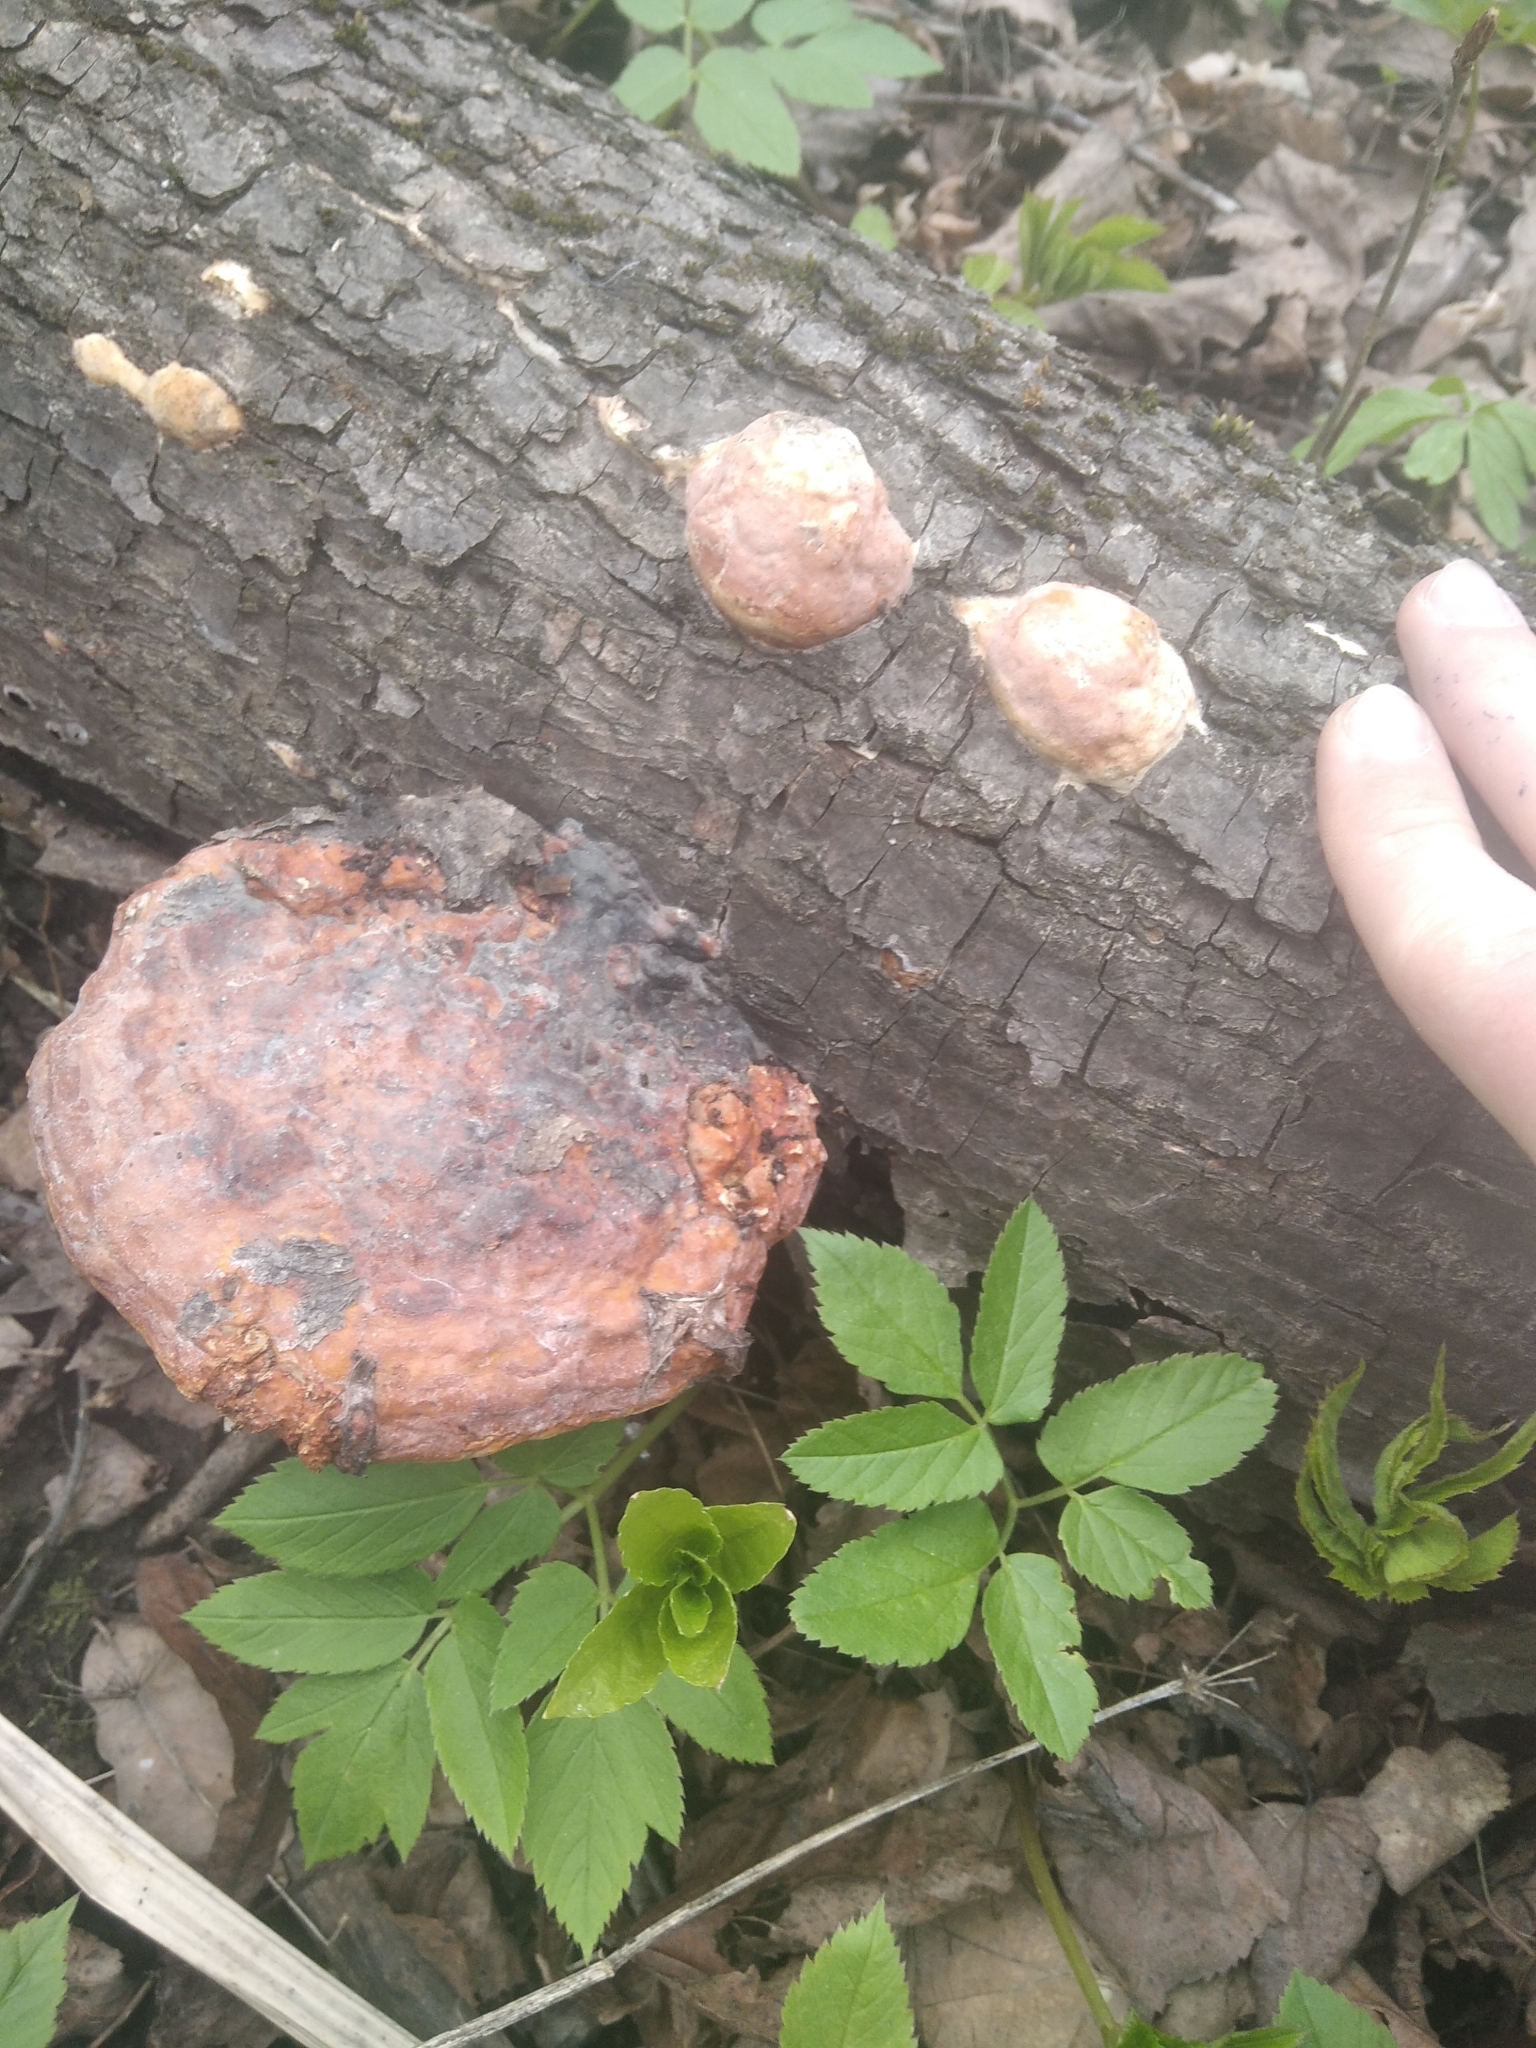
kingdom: Fungi
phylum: Basidiomycota
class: Agaricomycetes
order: Polyporales
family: Fomitopsidaceae
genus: Fomitopsis
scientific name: Fomitopsis pinicola
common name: Red-belted bracket
